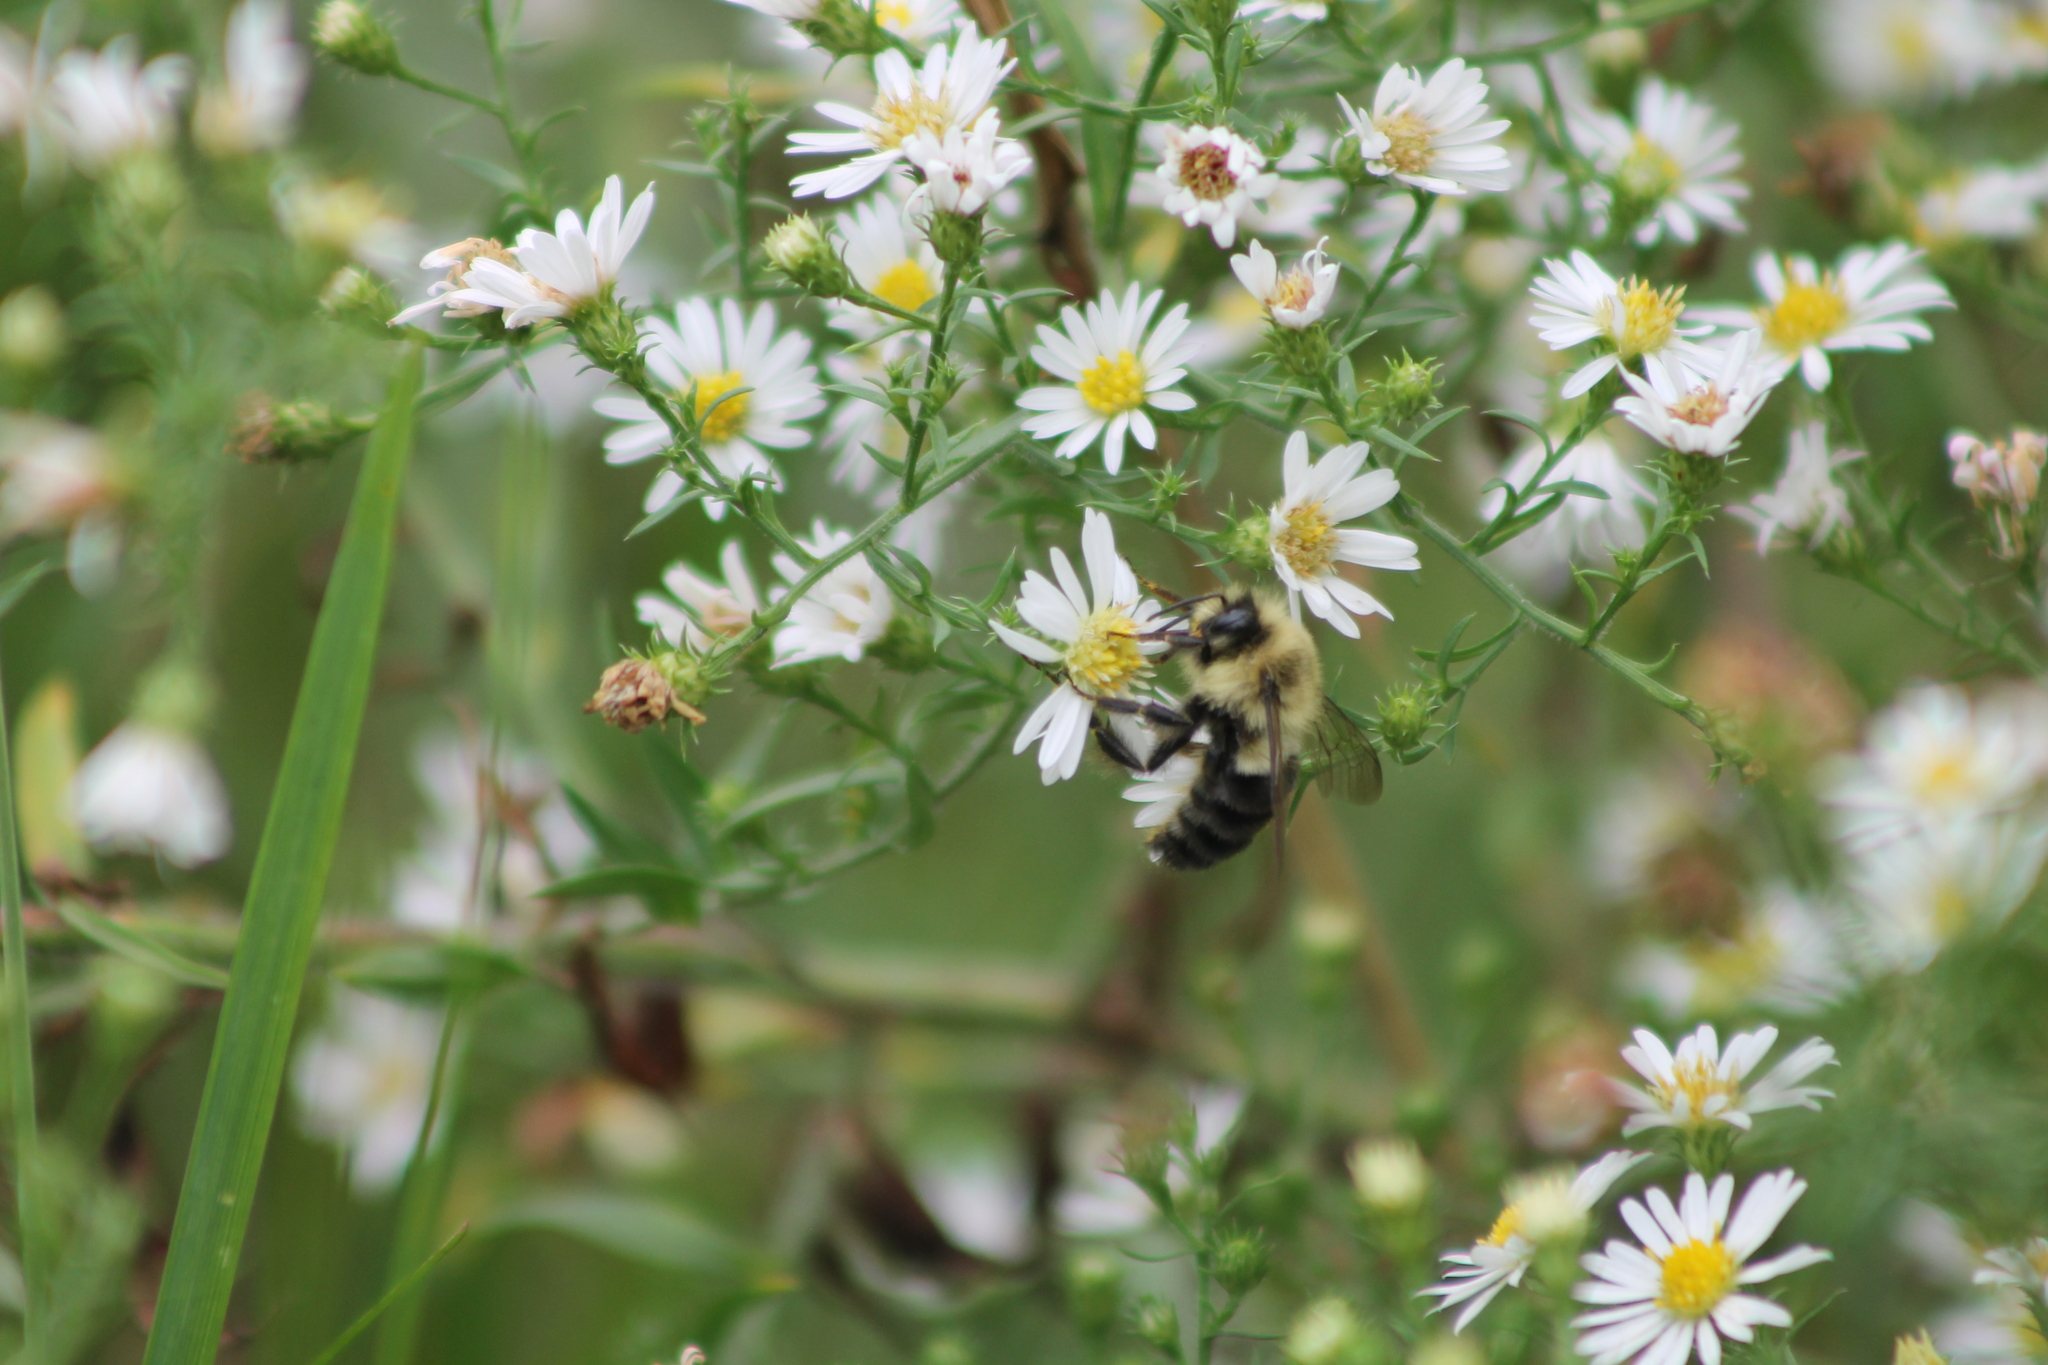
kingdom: Animalia
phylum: Arthropoda
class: Insecta
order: Hymenoptera
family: Apidae
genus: Bombus
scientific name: Bombus impatiens
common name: Common eastern bumble bee
